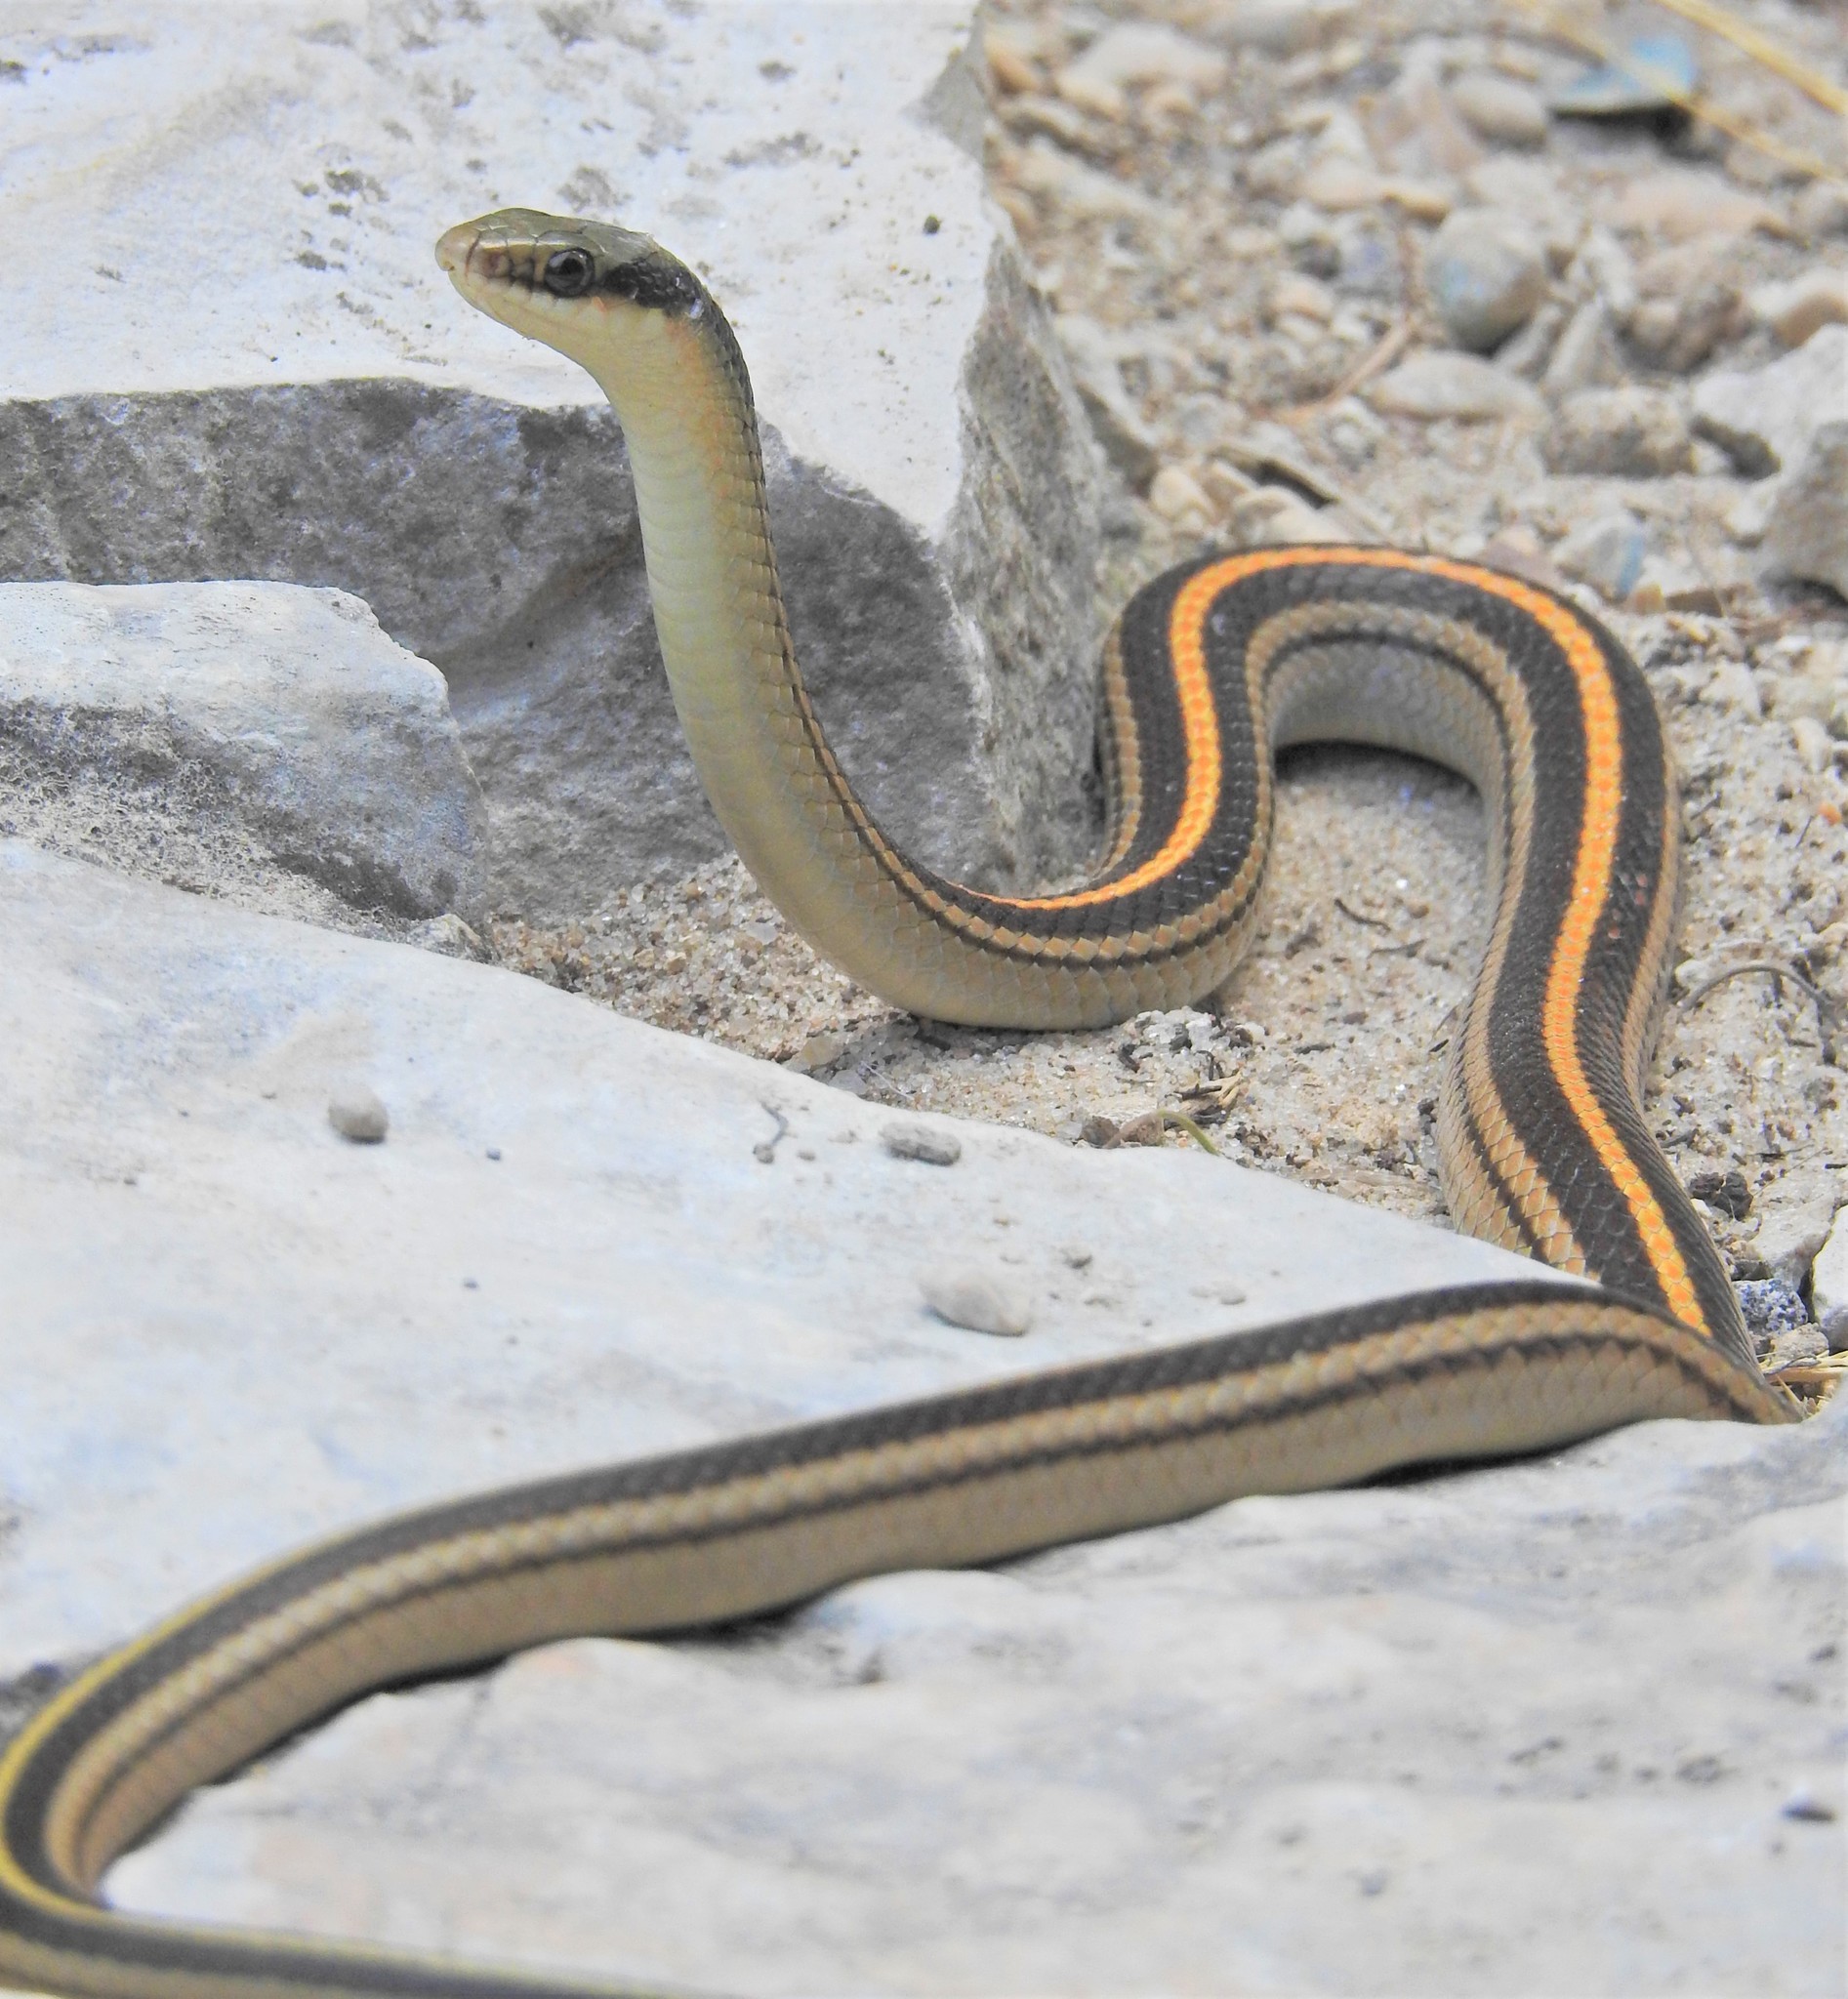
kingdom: Animalia
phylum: Chordata
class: Squamata
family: Colubridae
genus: Salvadora
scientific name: Salvadora lineata
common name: Texas patchnose snake
